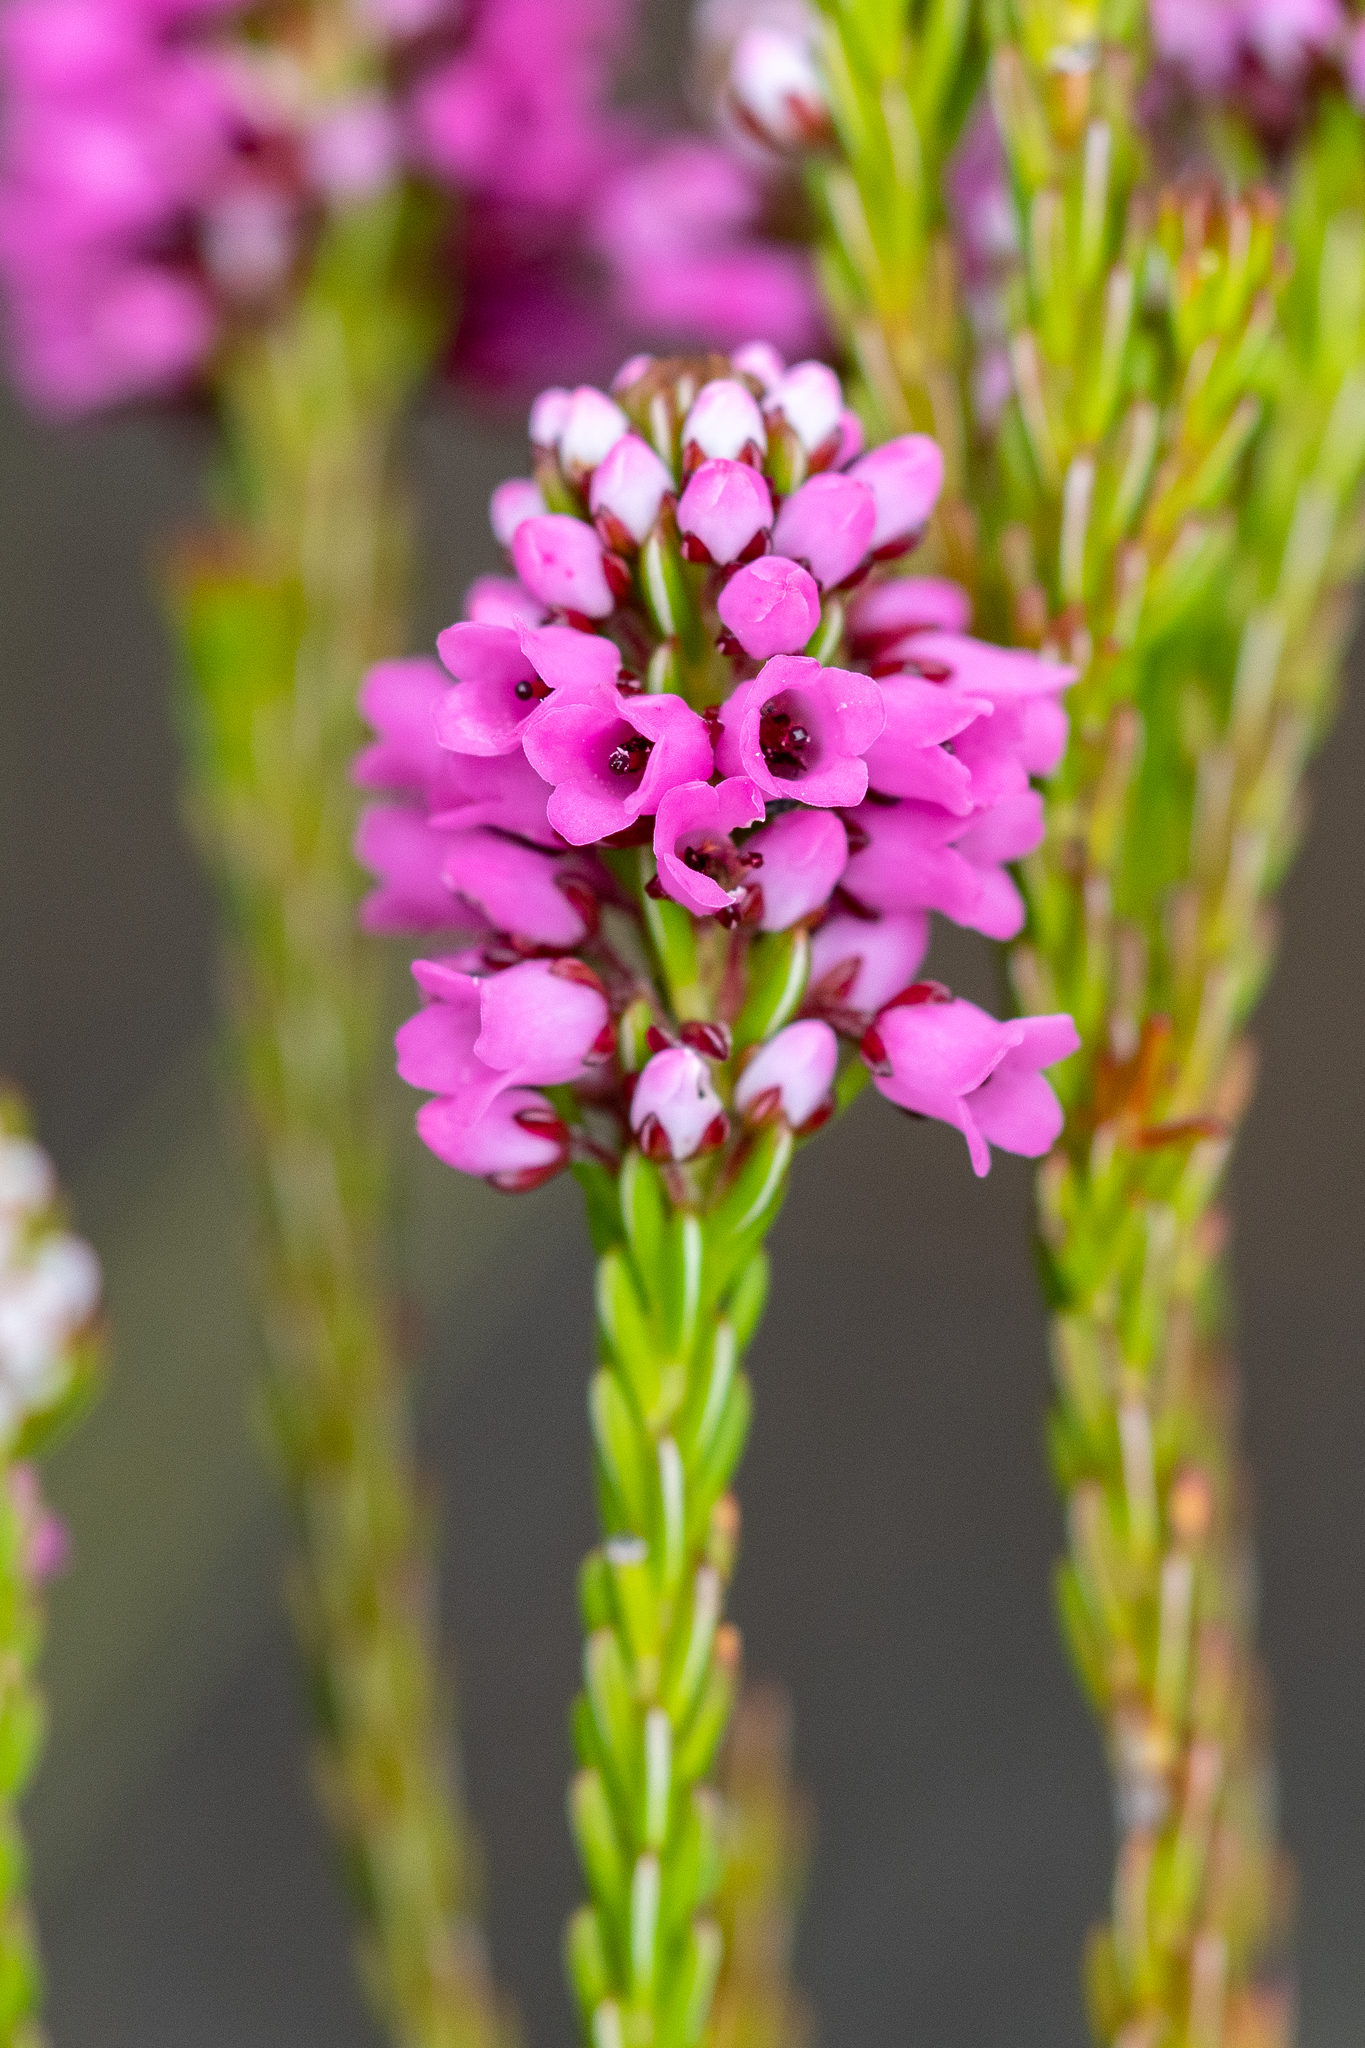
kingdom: Plantae
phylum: Tracheophyta
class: Magnoliopsida
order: Ericales
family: Ericaceae
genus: Erica
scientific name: Erica pulchella
